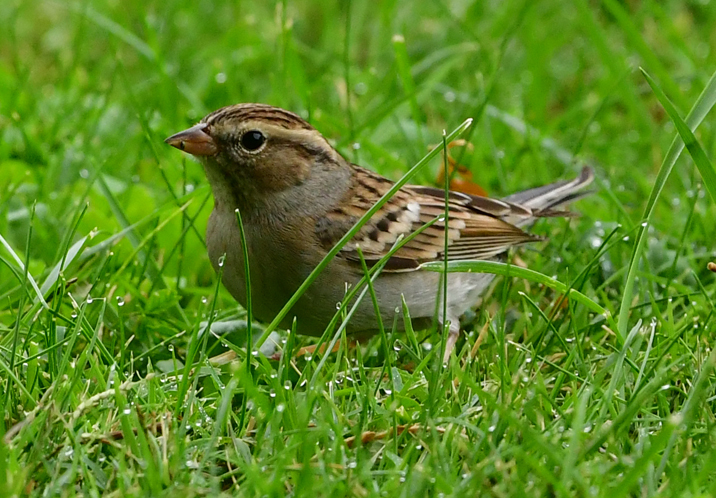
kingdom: Animalia
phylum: Chordata
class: Aves
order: Passeriformes
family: Passerellidae
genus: Spizella
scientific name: Spizella passerina
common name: Chipping sparrow
